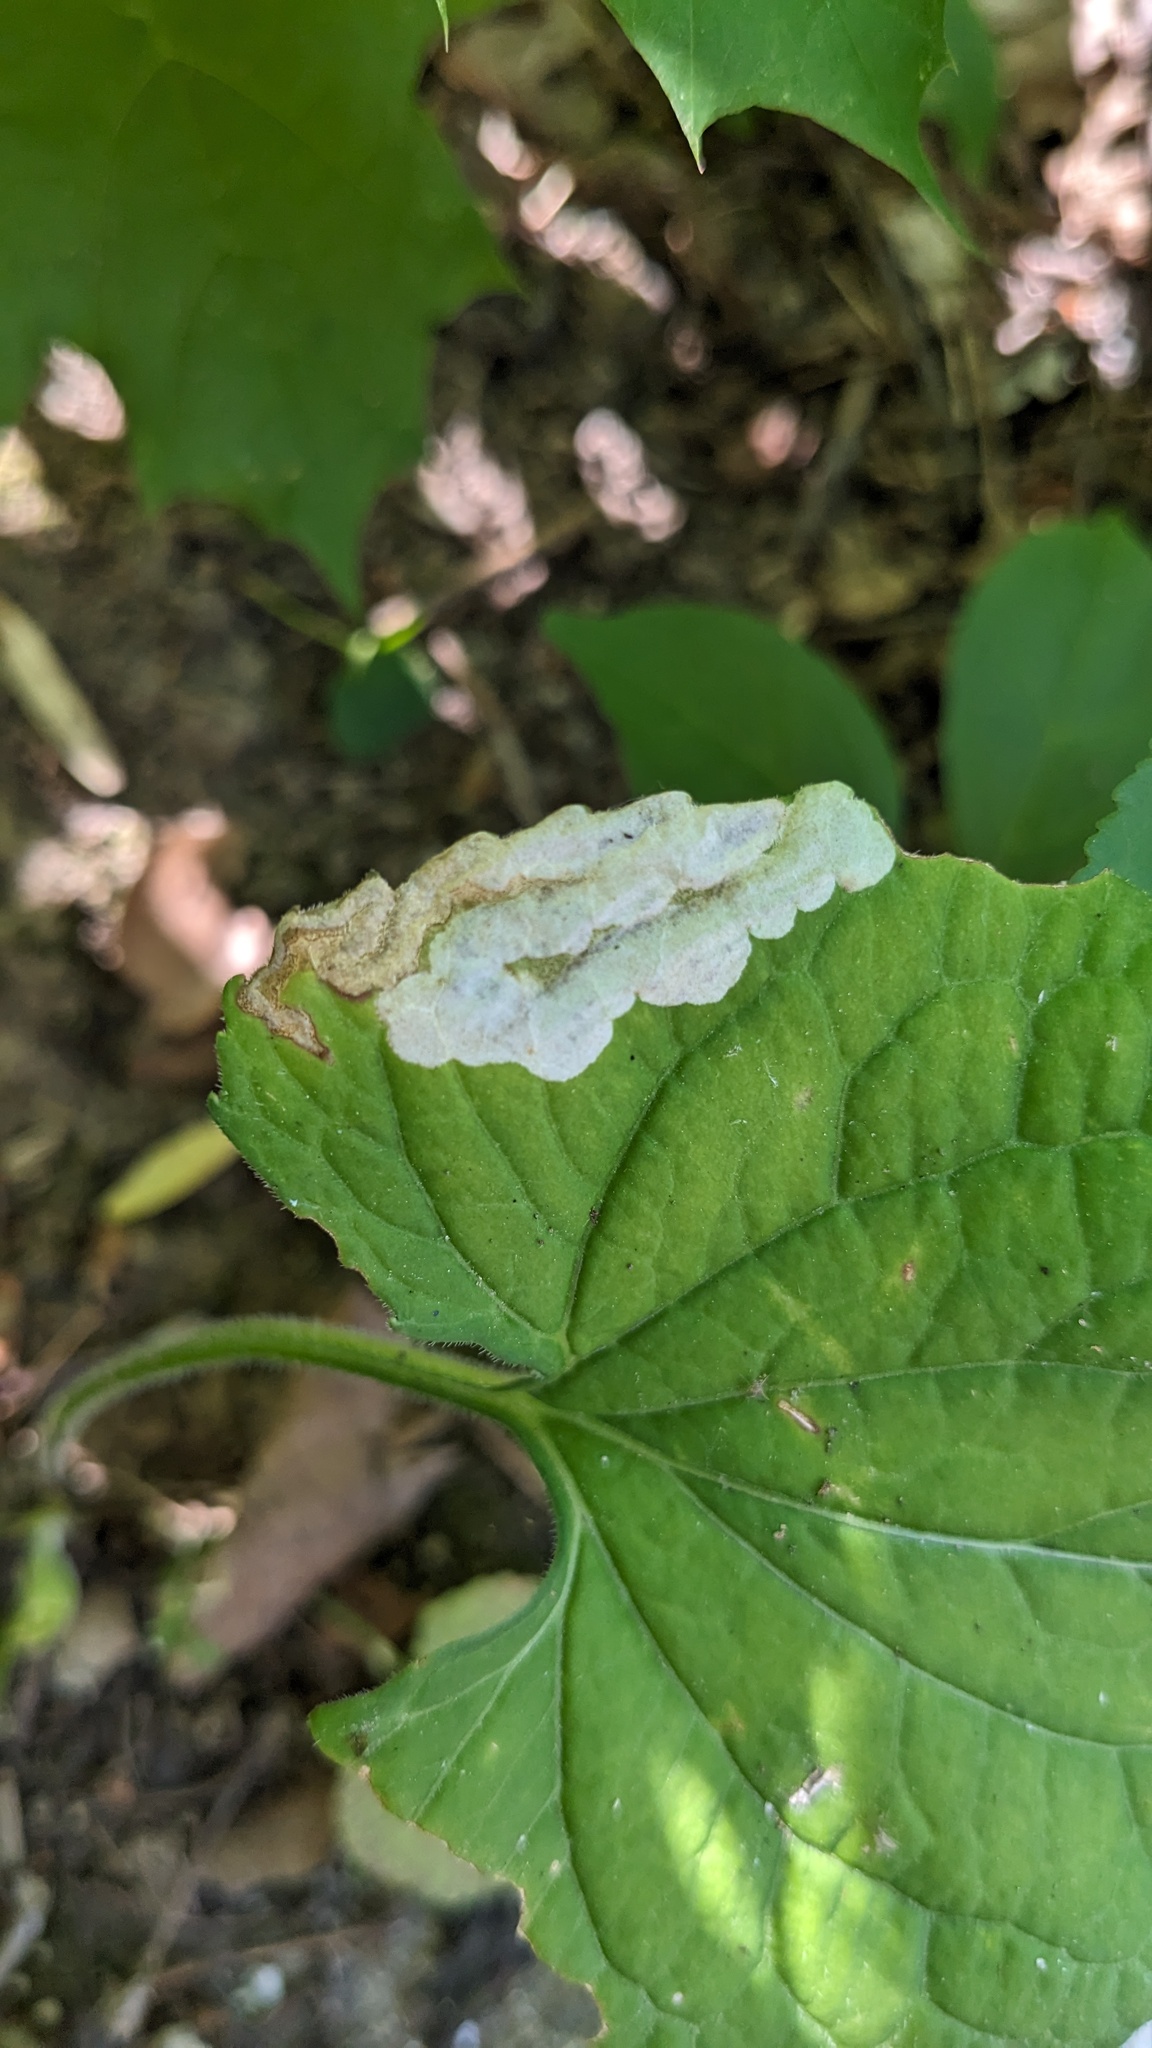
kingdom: Animalia
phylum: Arthropoda
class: Insecta
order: Hymenoptera
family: Tenthredinidae
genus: Nefusa
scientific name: Nefusa ambigua
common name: Violet leafmining sawfly
